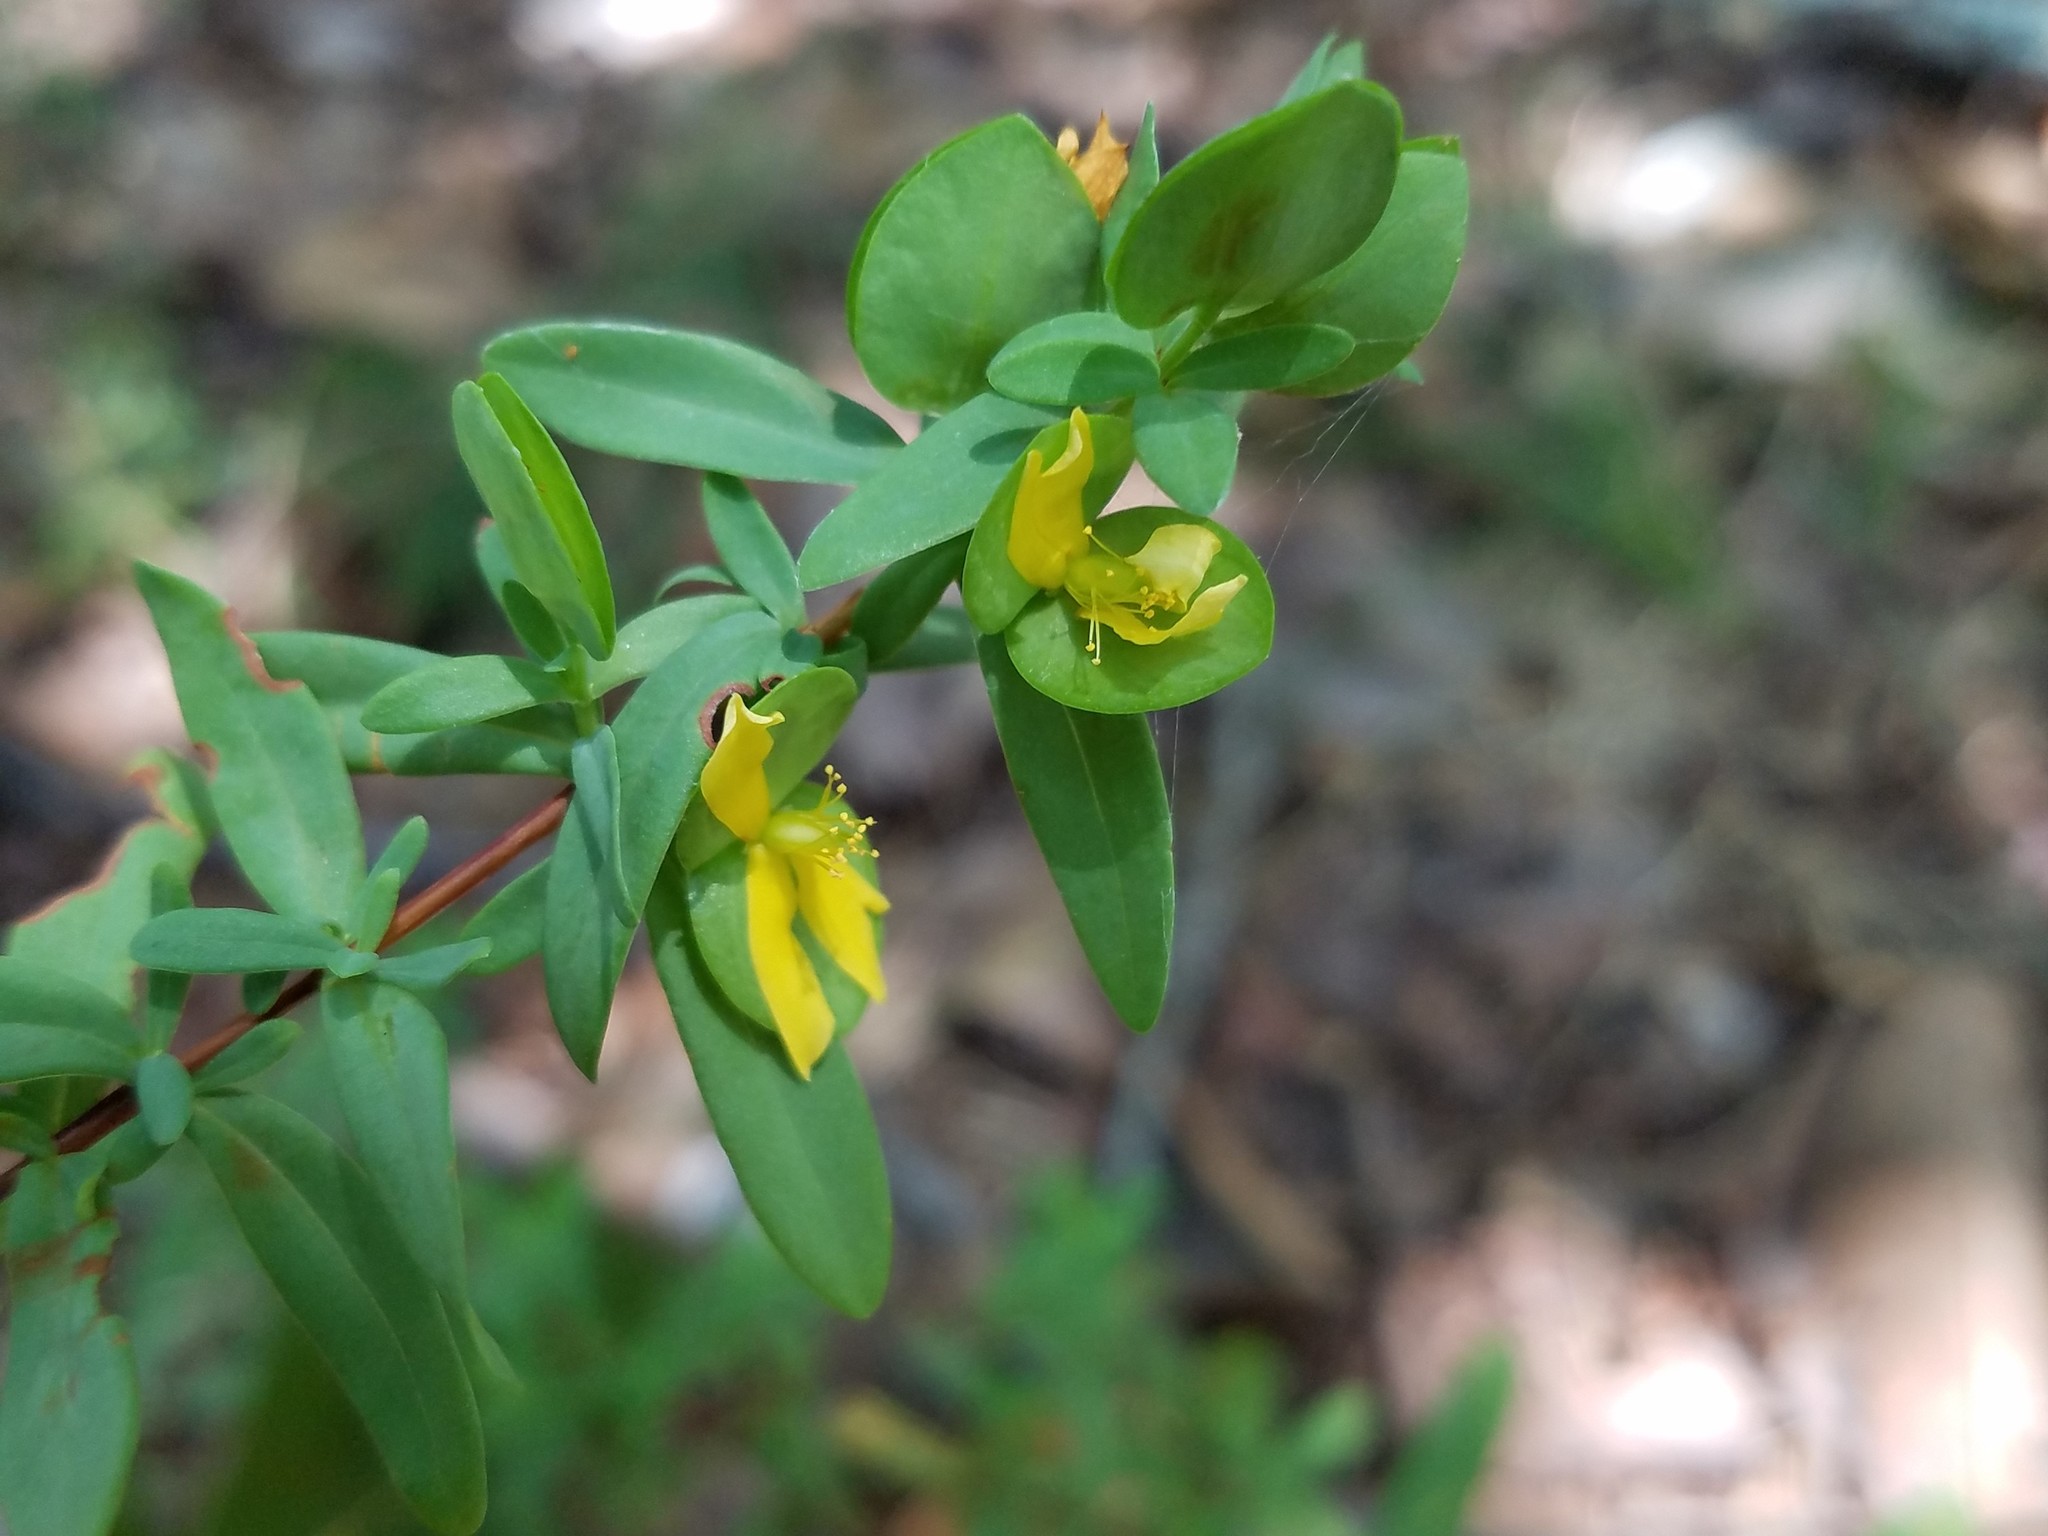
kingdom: Plantae
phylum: Tracheophyta
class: Magnoliopsida
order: Malpighiales
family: Hypericaceae
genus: Hypericum
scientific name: Hypericum hypericoides
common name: St. andrew's cross
